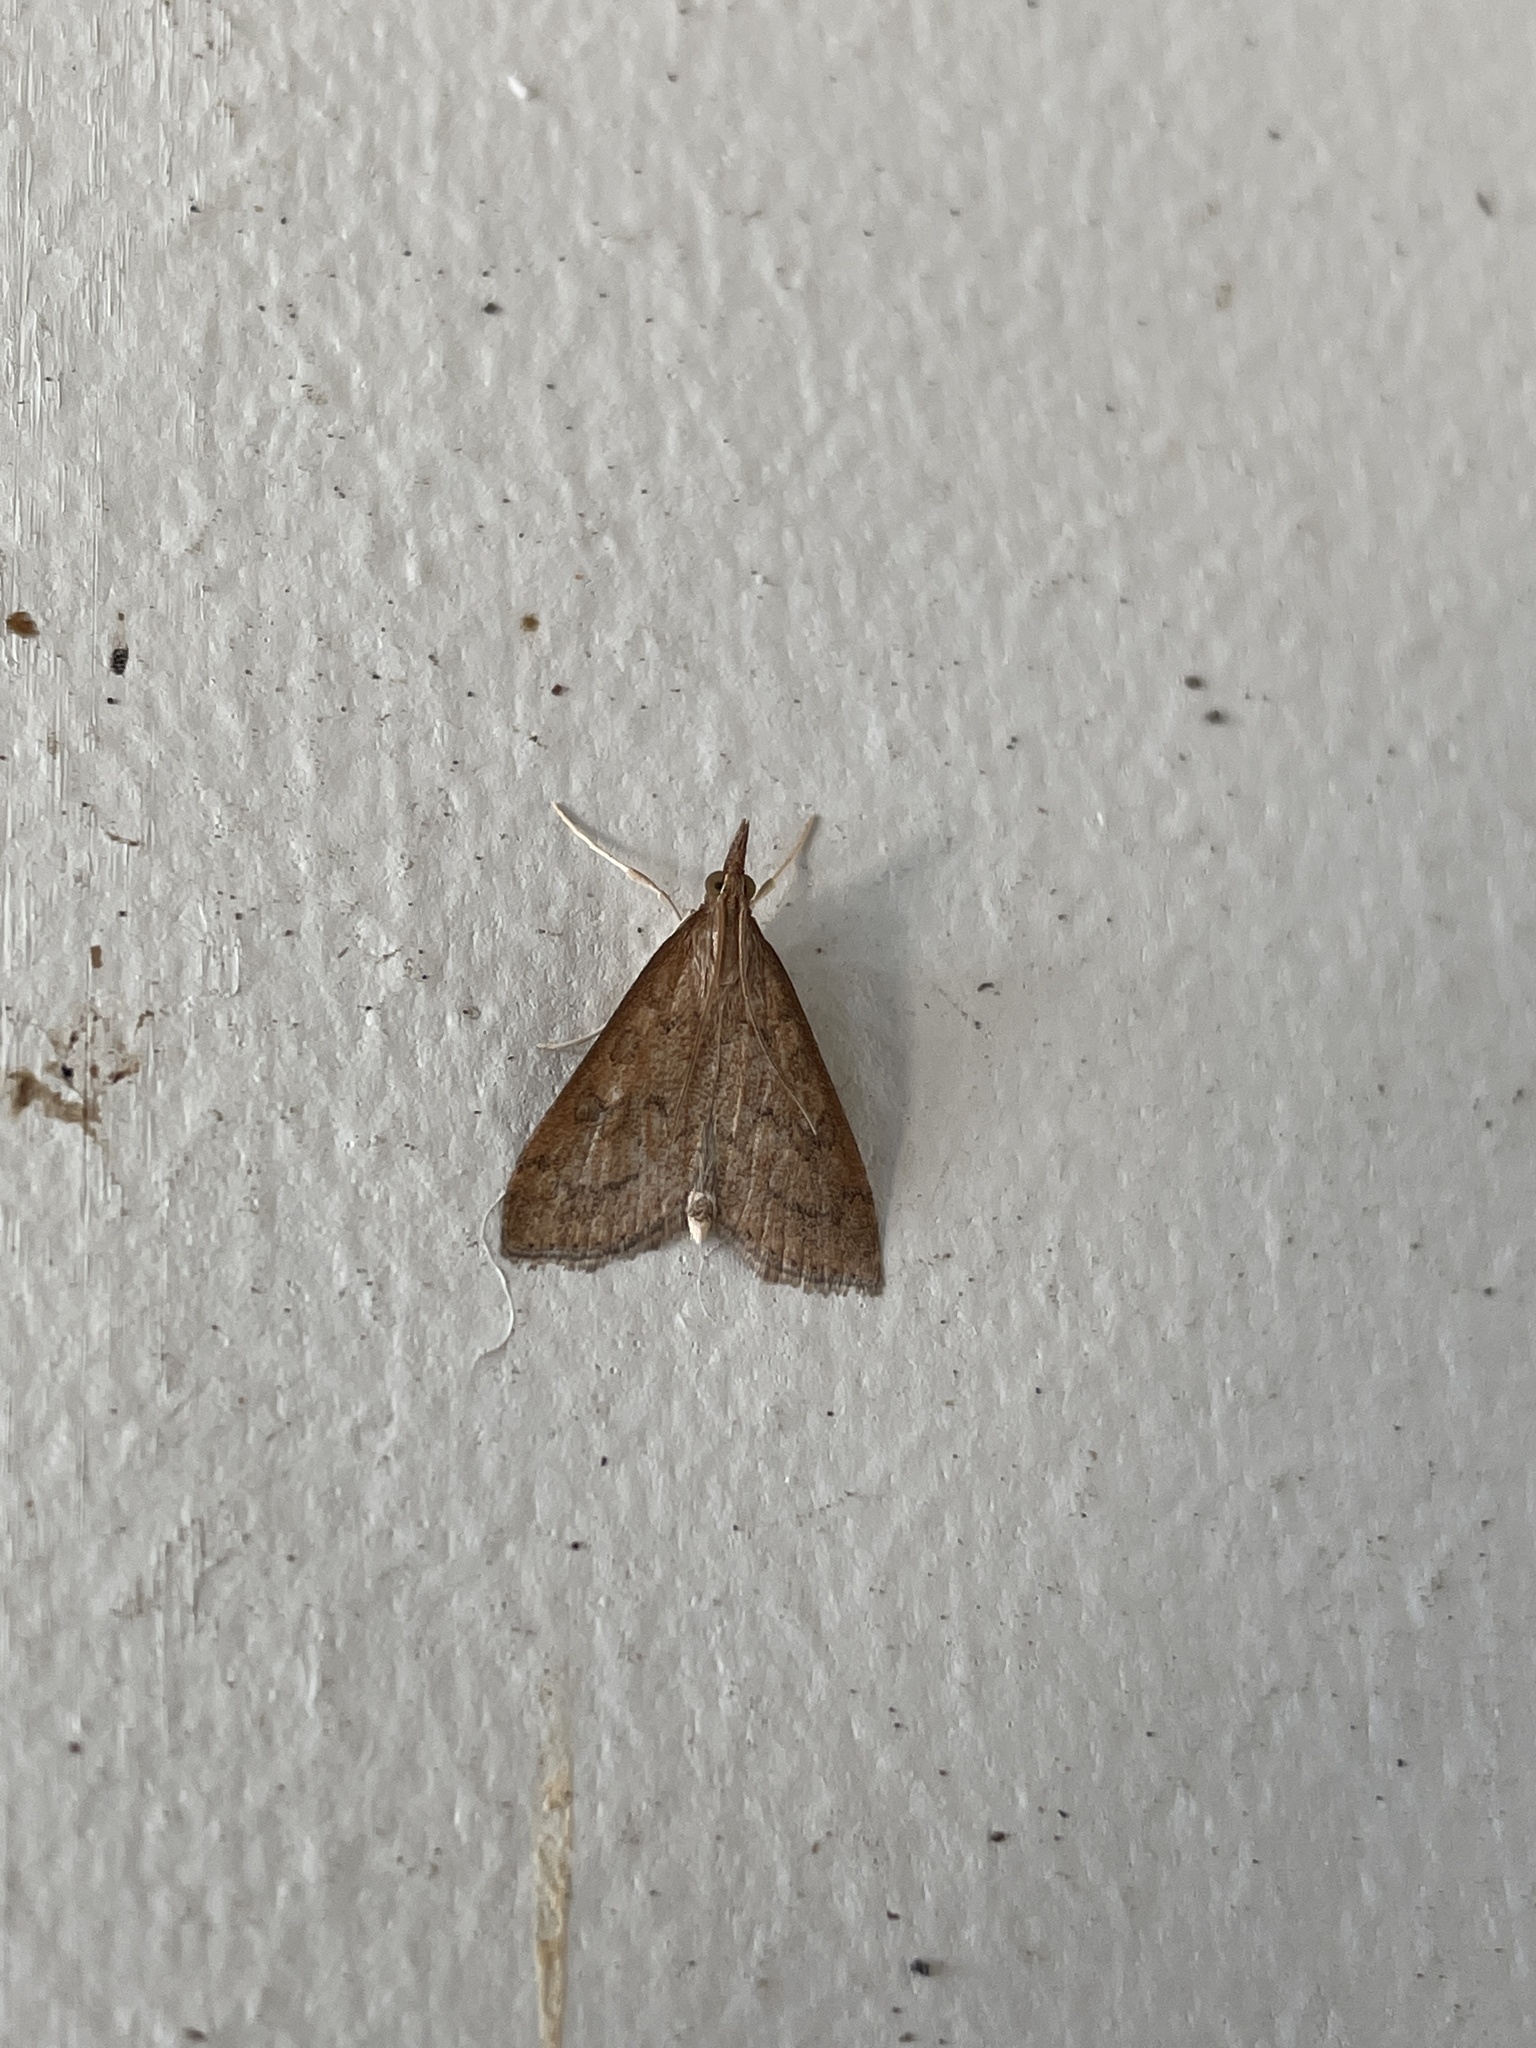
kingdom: Animalia
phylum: Arthropoda
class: Insecta
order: Lepidoptera
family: Crambidae
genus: Udea
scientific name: Udea rubigalis
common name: Celery leaftier moth
